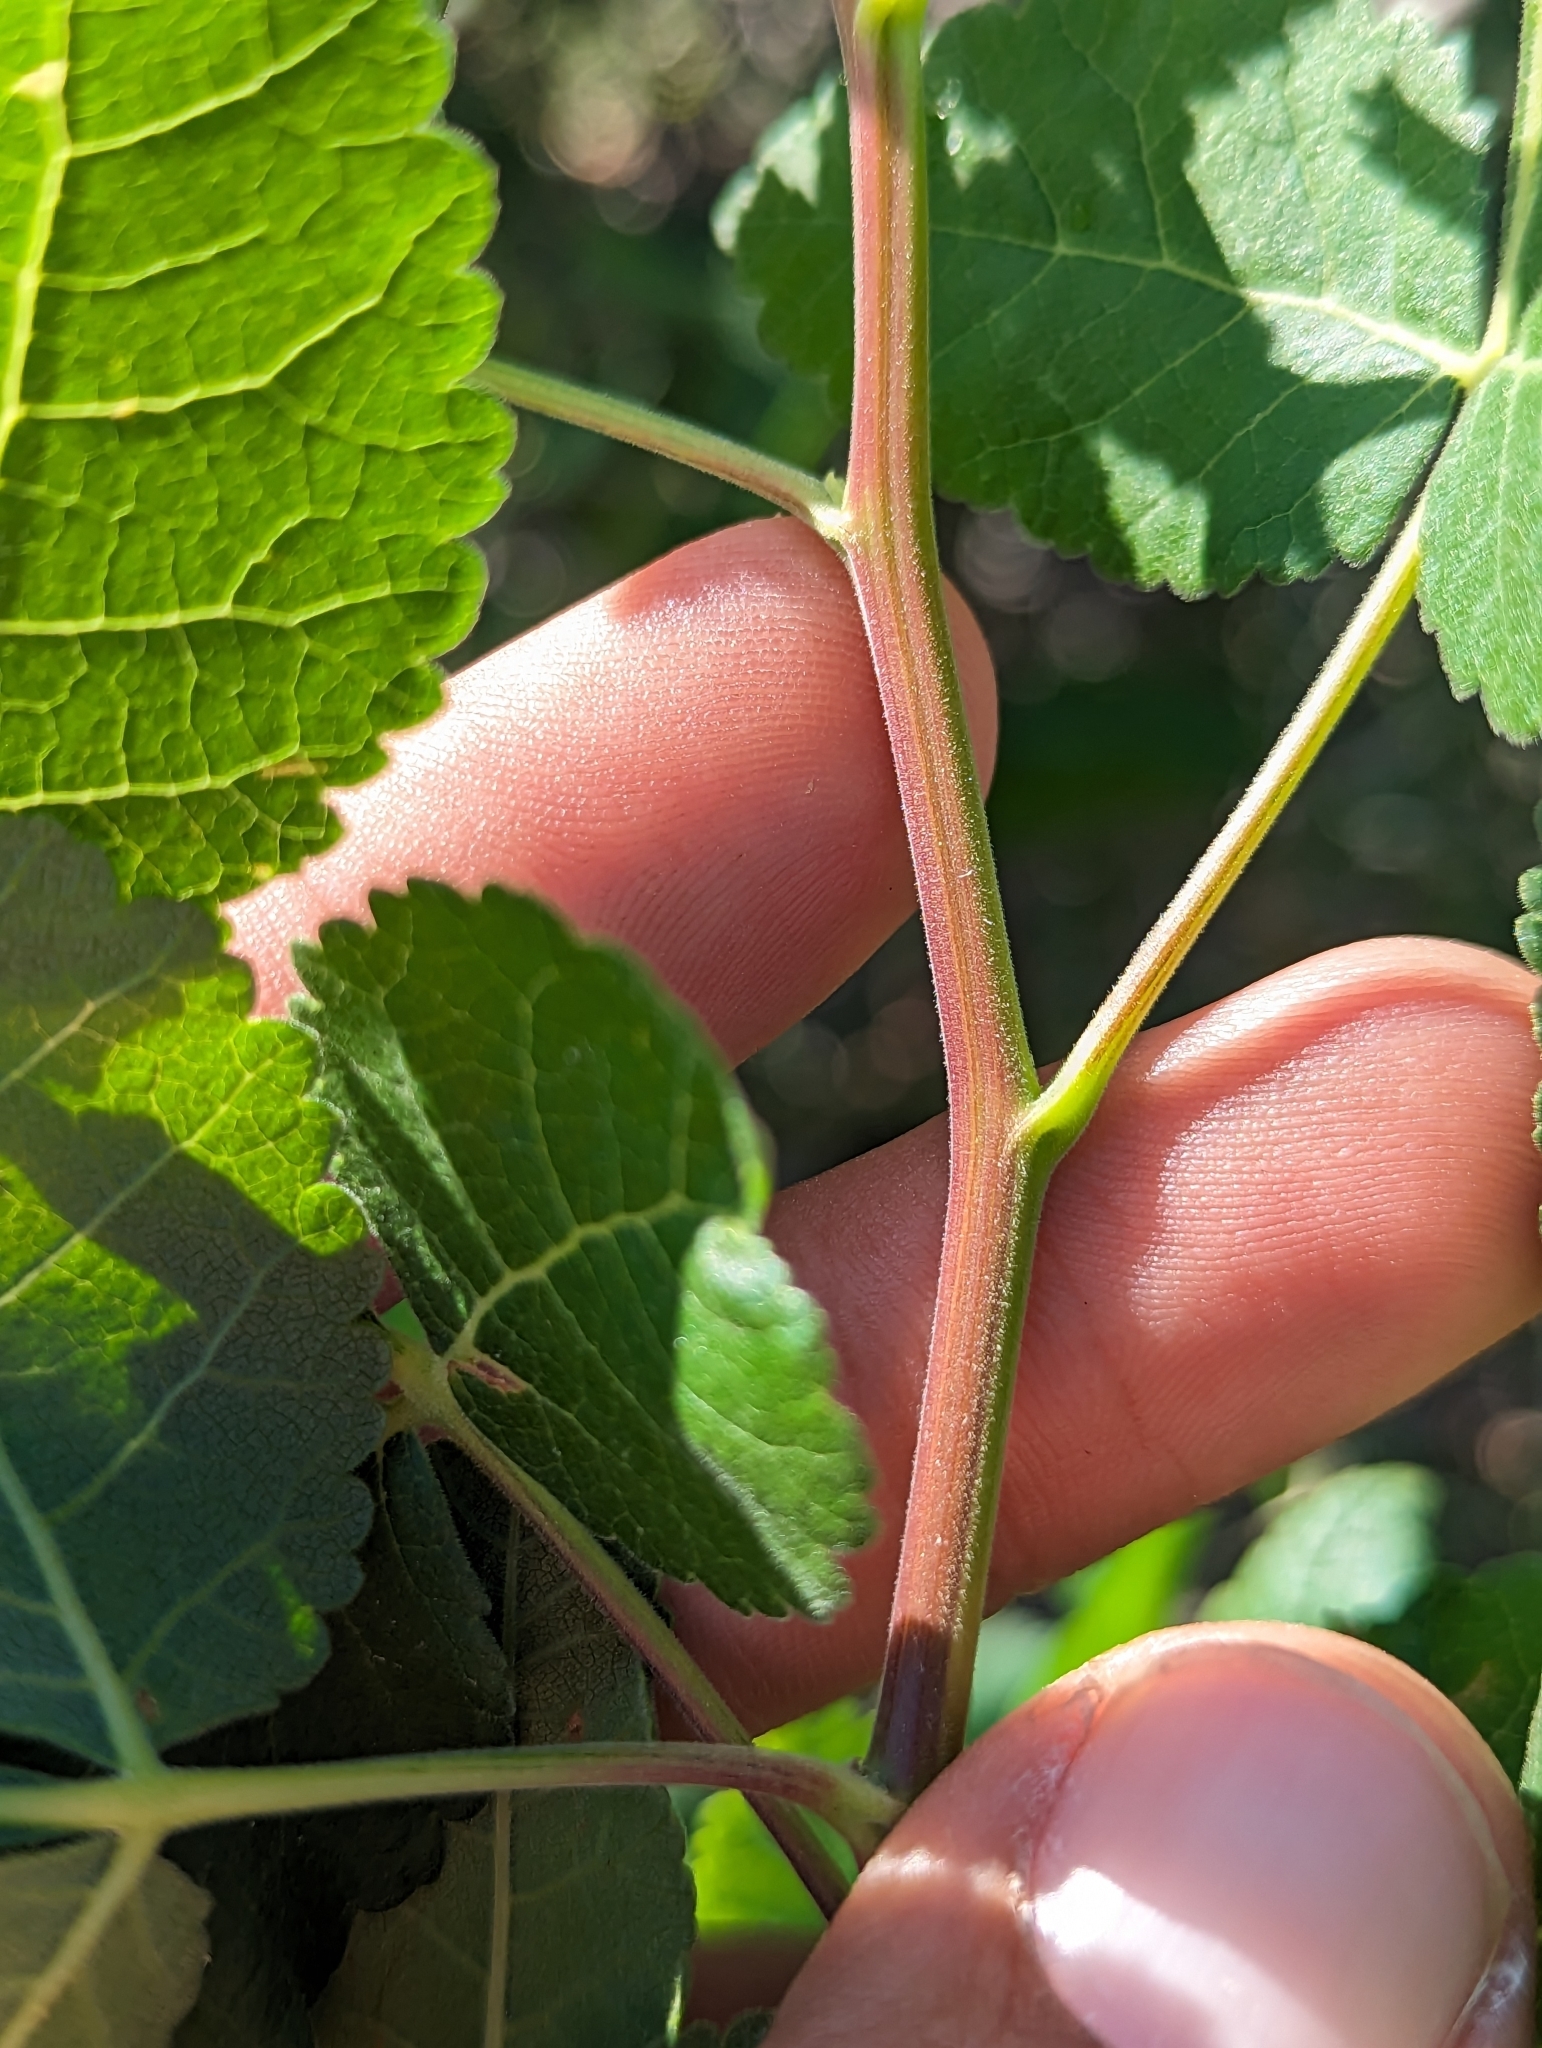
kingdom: Plantae
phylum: Tracheophyta
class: Magnoliopsida
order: Sapindales
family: Burseraceae
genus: Bursera
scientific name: Bursera epinnata
